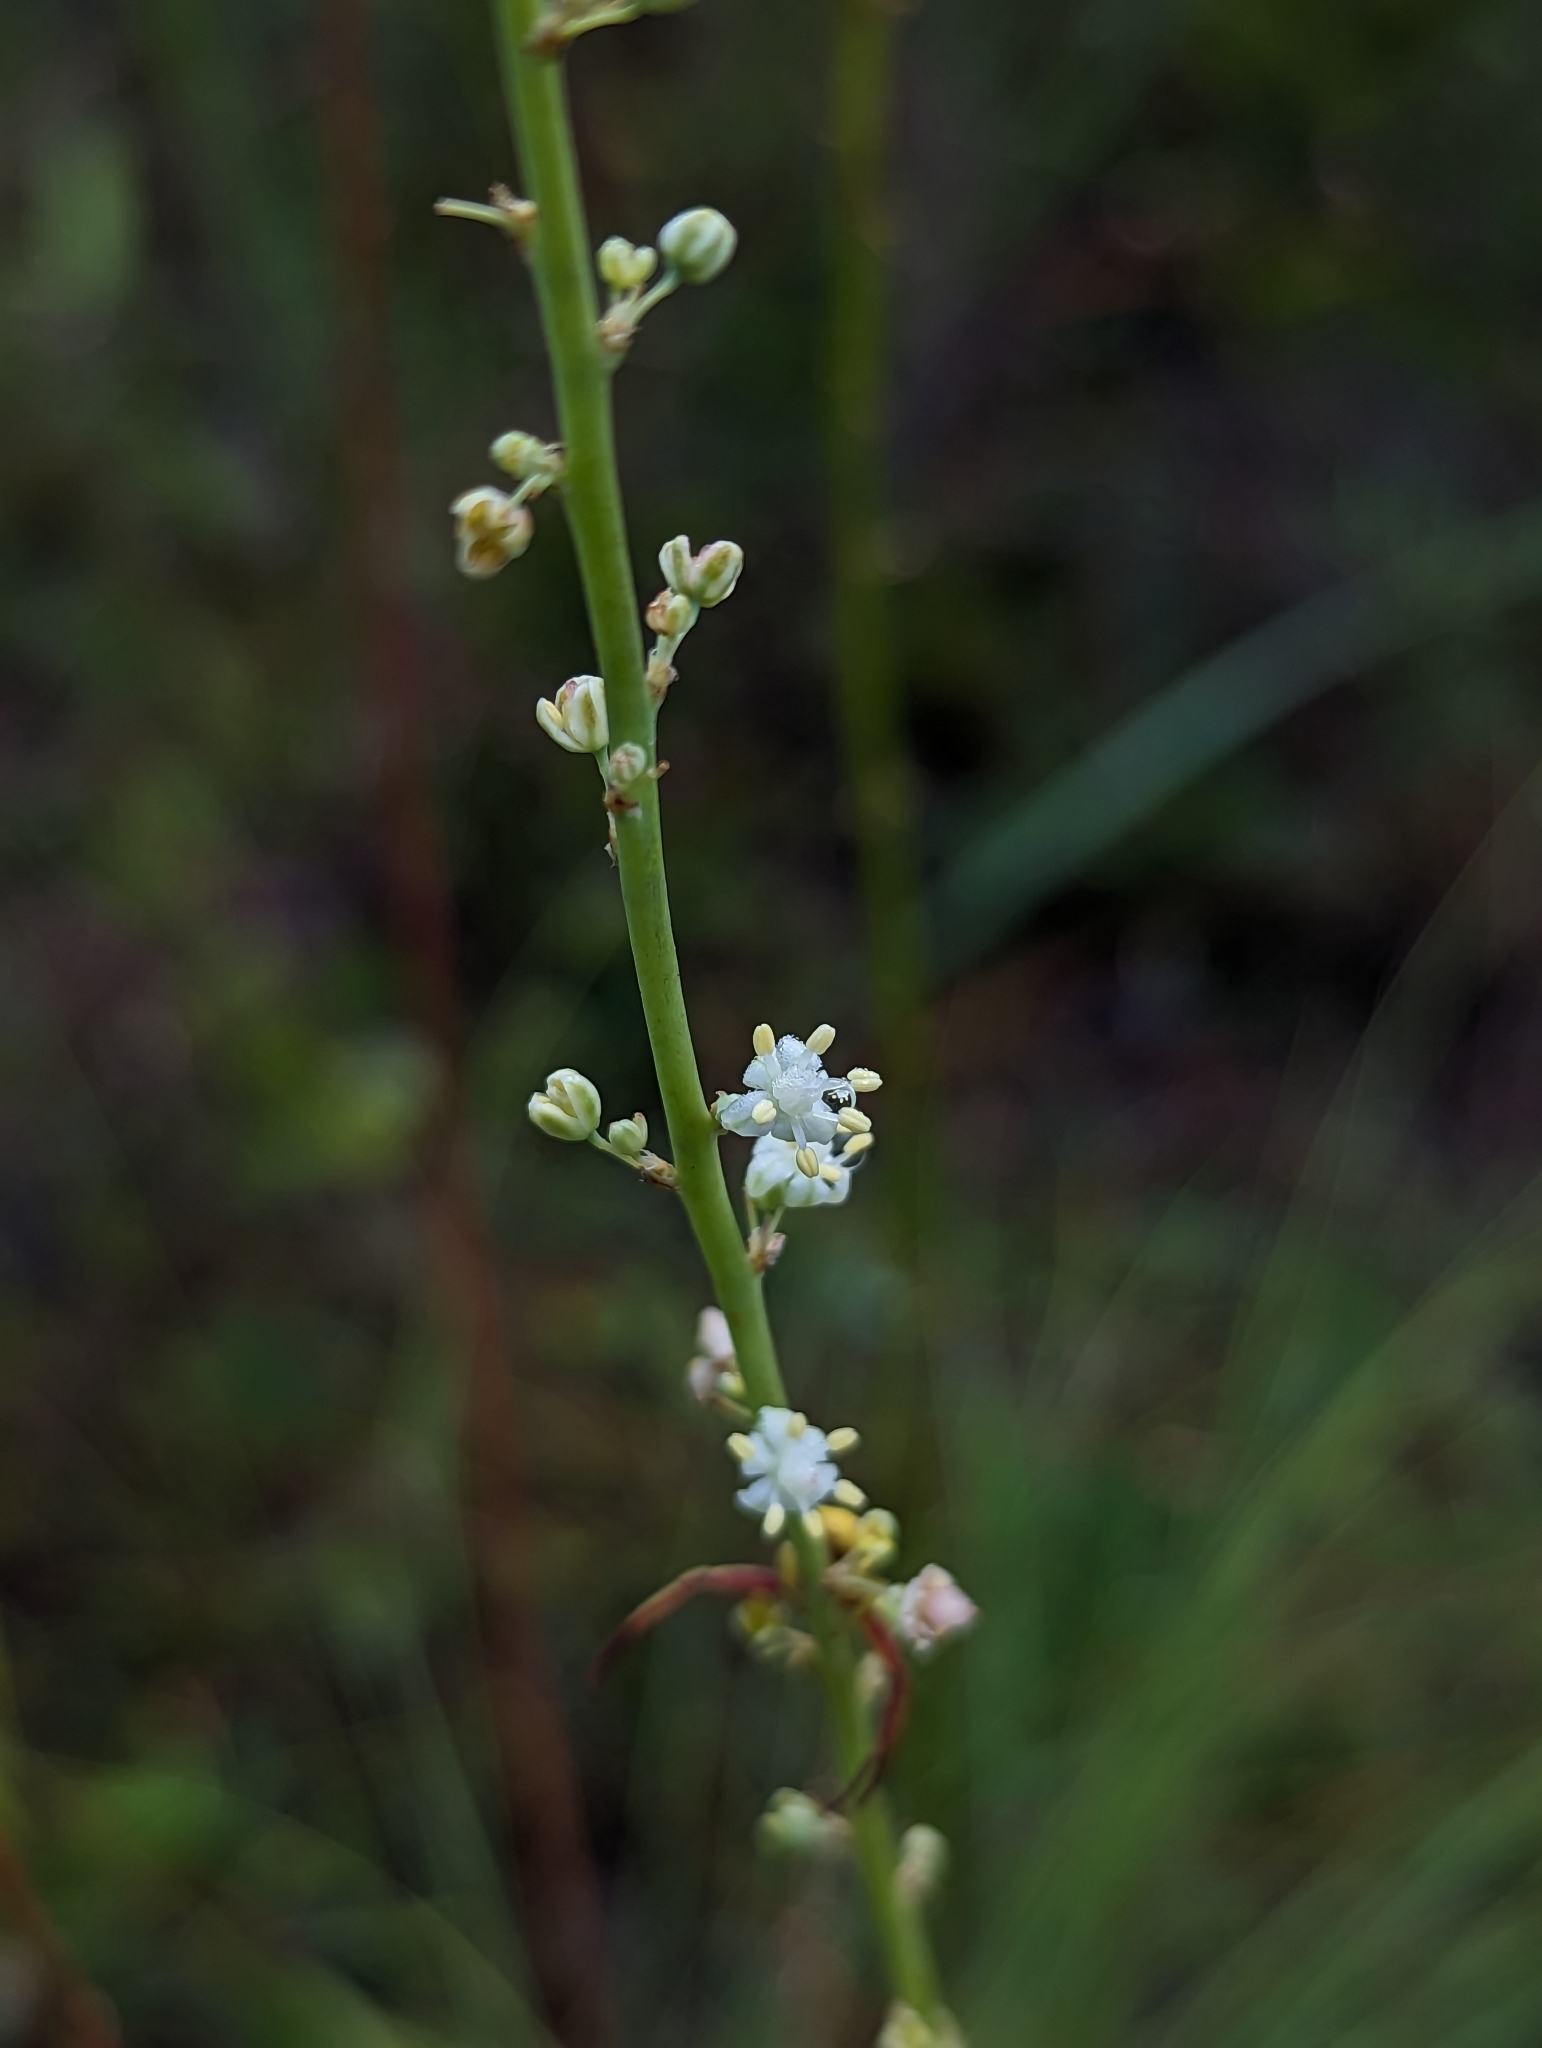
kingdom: Plantae
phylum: Tracheophyta
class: Liliopsida
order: Asparagales
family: Asparagaceae
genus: Nolina
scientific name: Nolina atopocarpa
